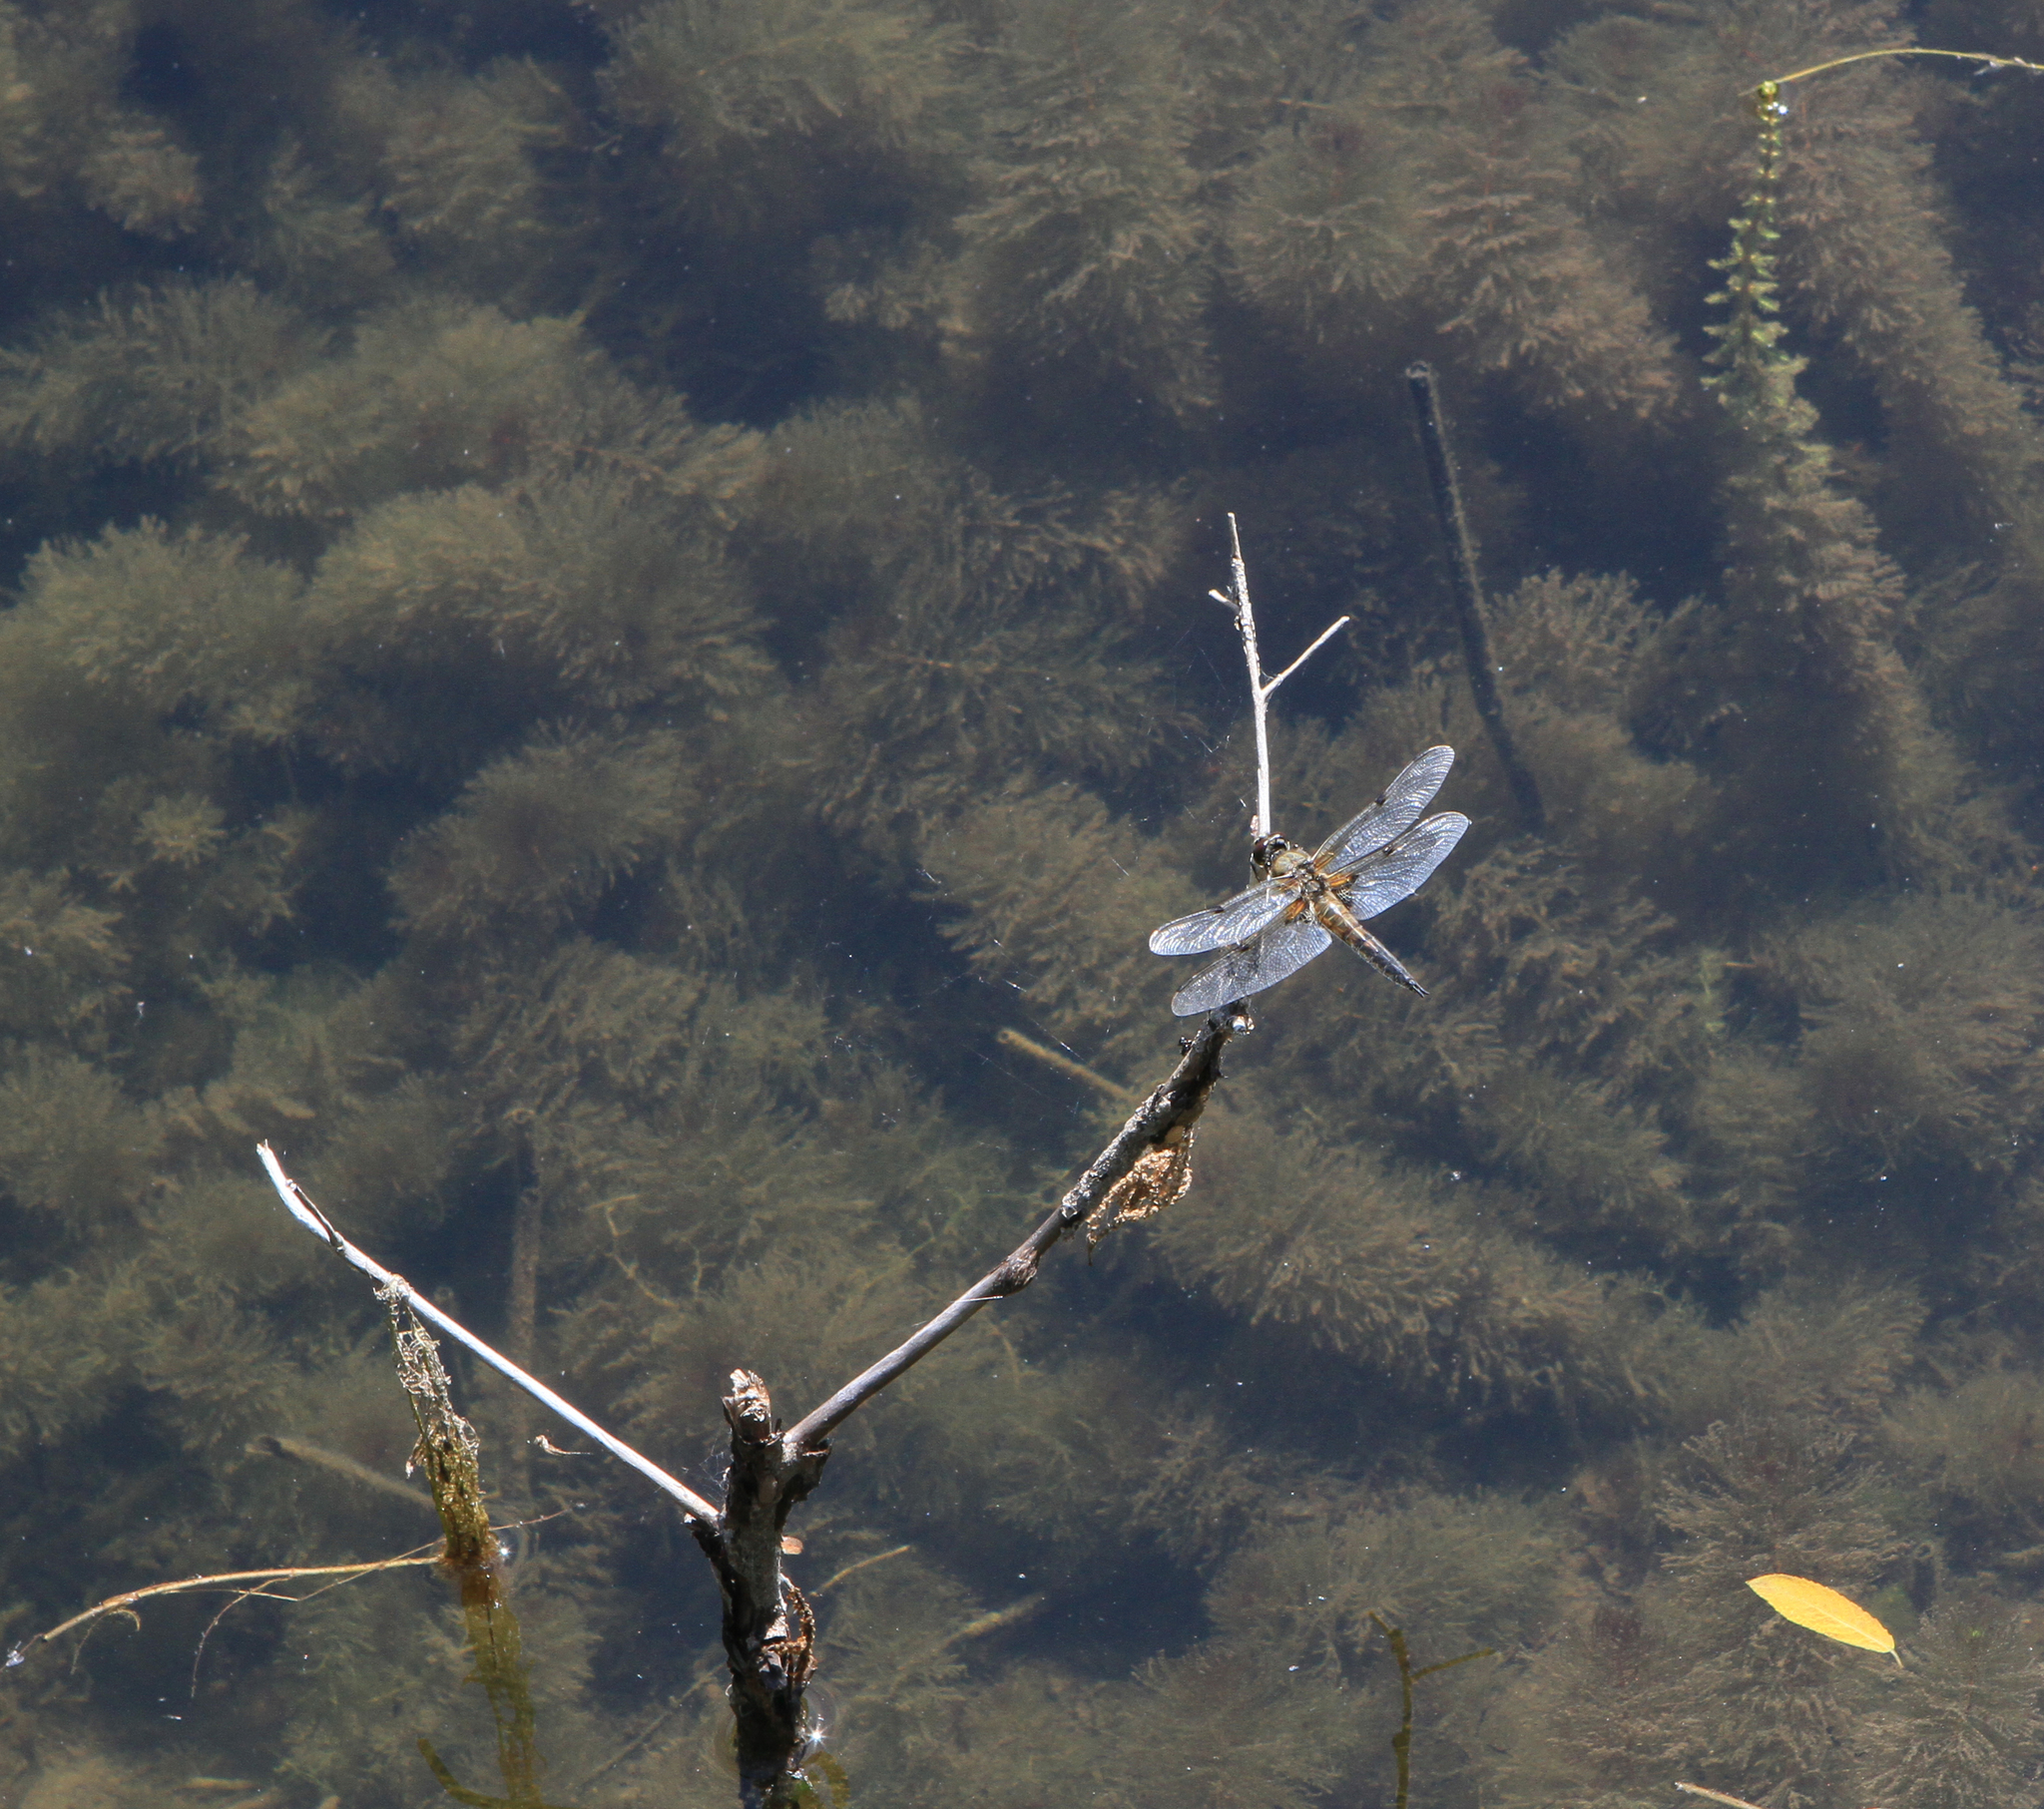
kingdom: Animalia
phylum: Arthropoda
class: Insecta
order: Odonata
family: Libellulidae
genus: Libellula
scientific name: Libellula quadrimaculata
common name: Four-spotted chaser
